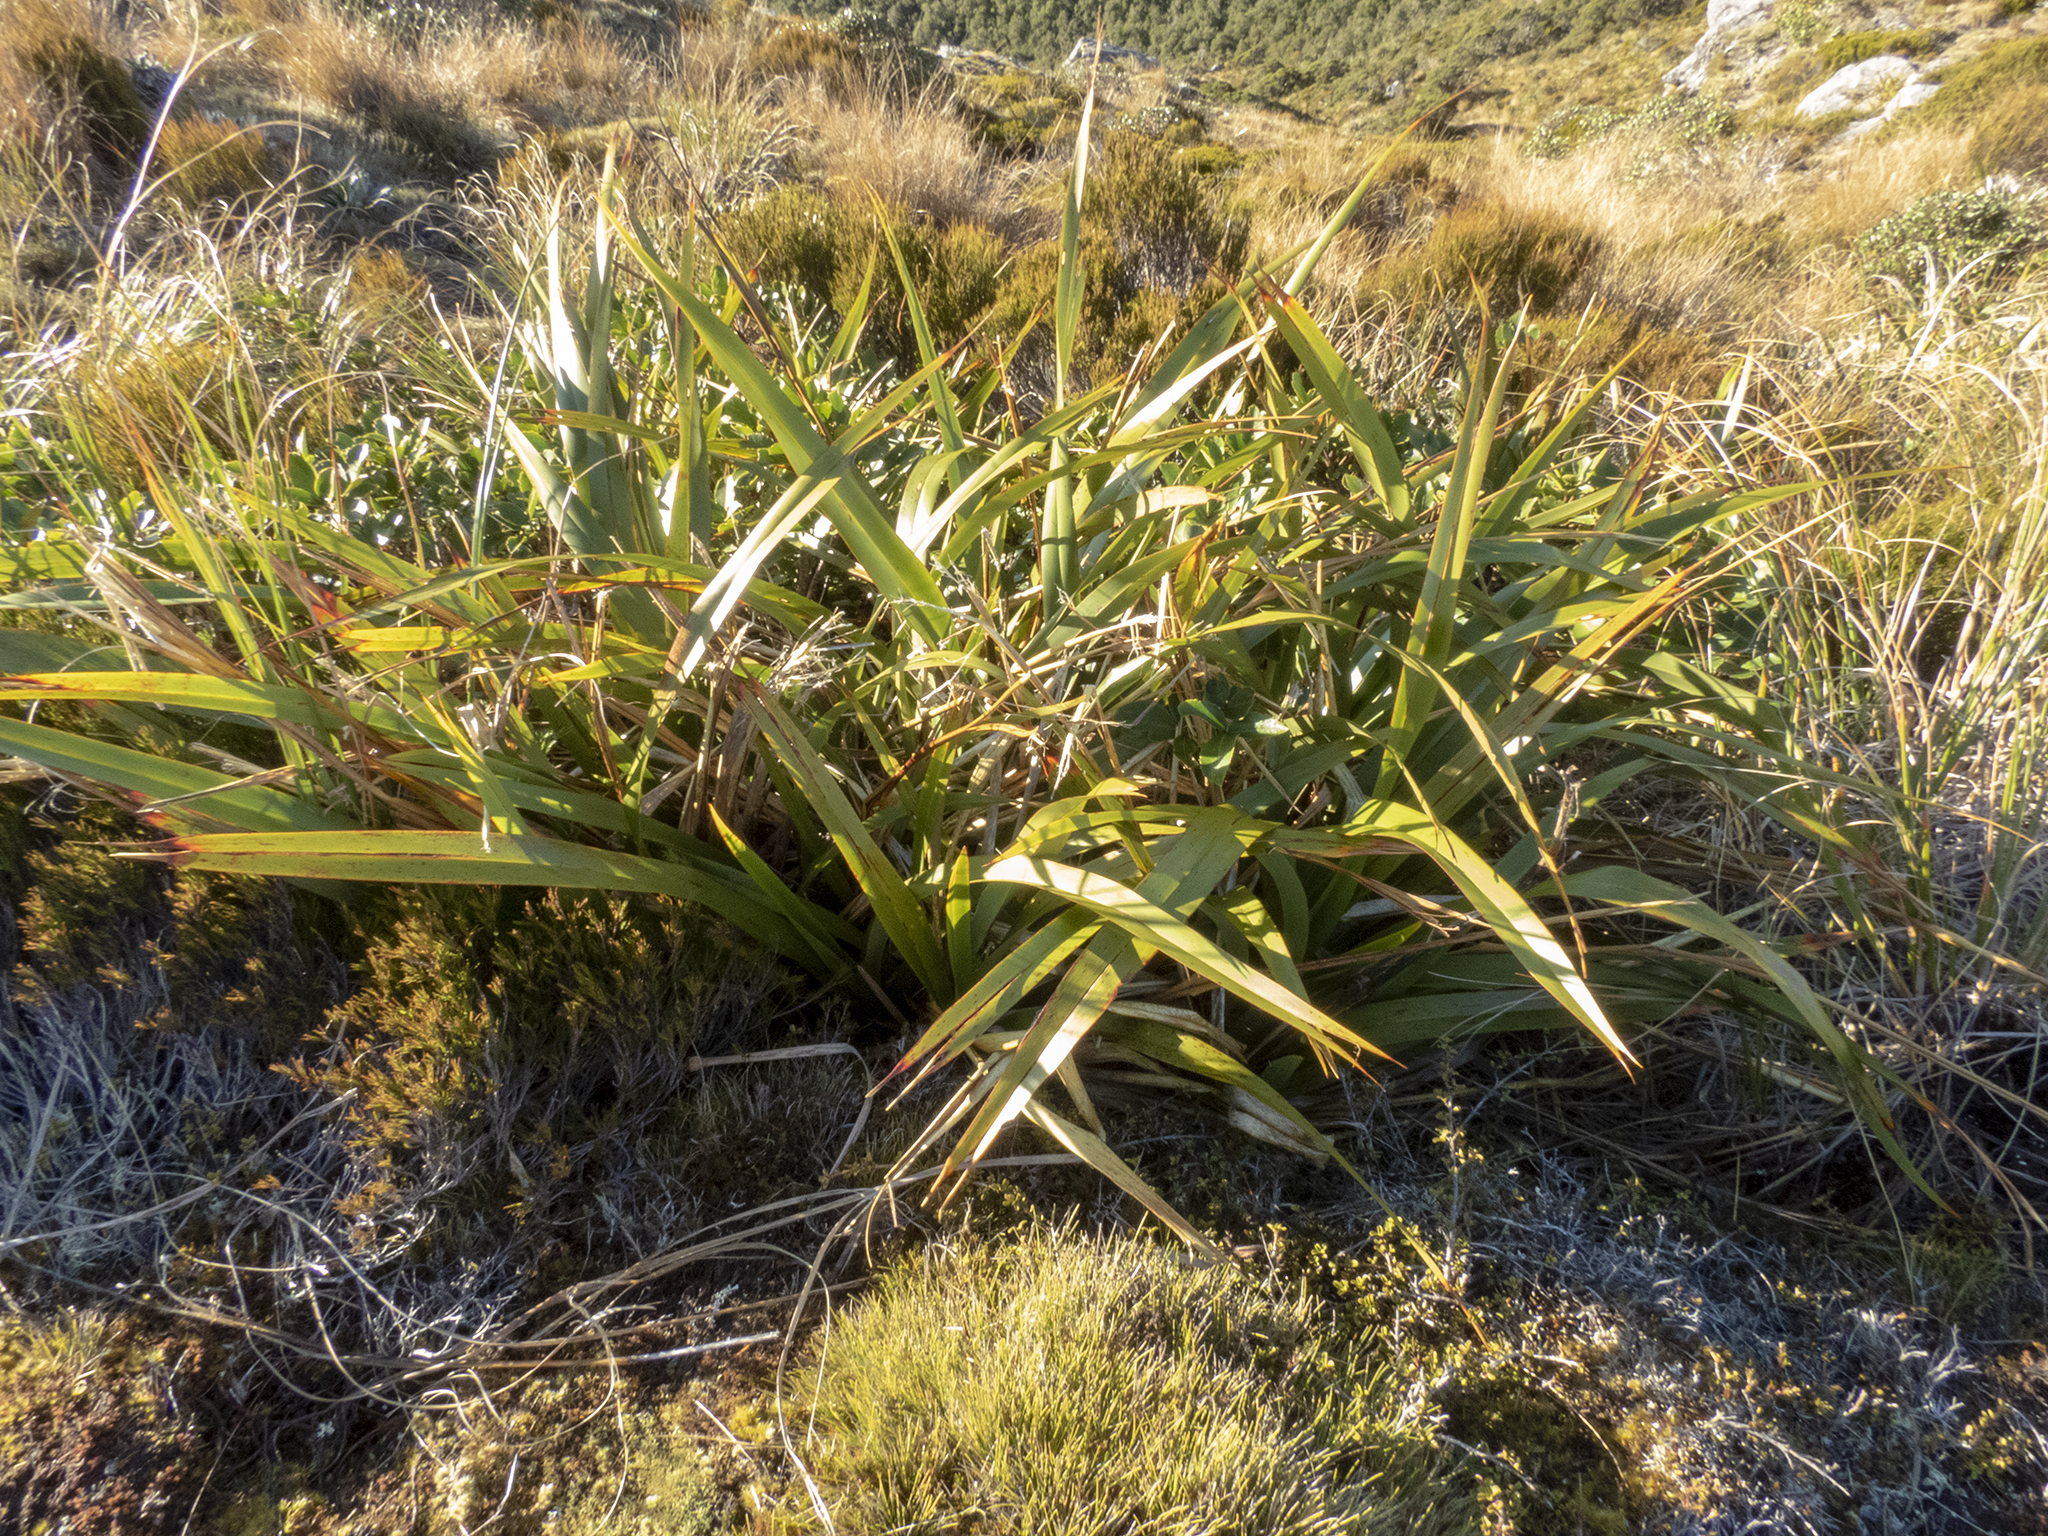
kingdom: Plantae
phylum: Tracheophyta
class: Liliopsida
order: Asparagales
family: Asphodelaceae
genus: Phormium
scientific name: Phormium colensoi
